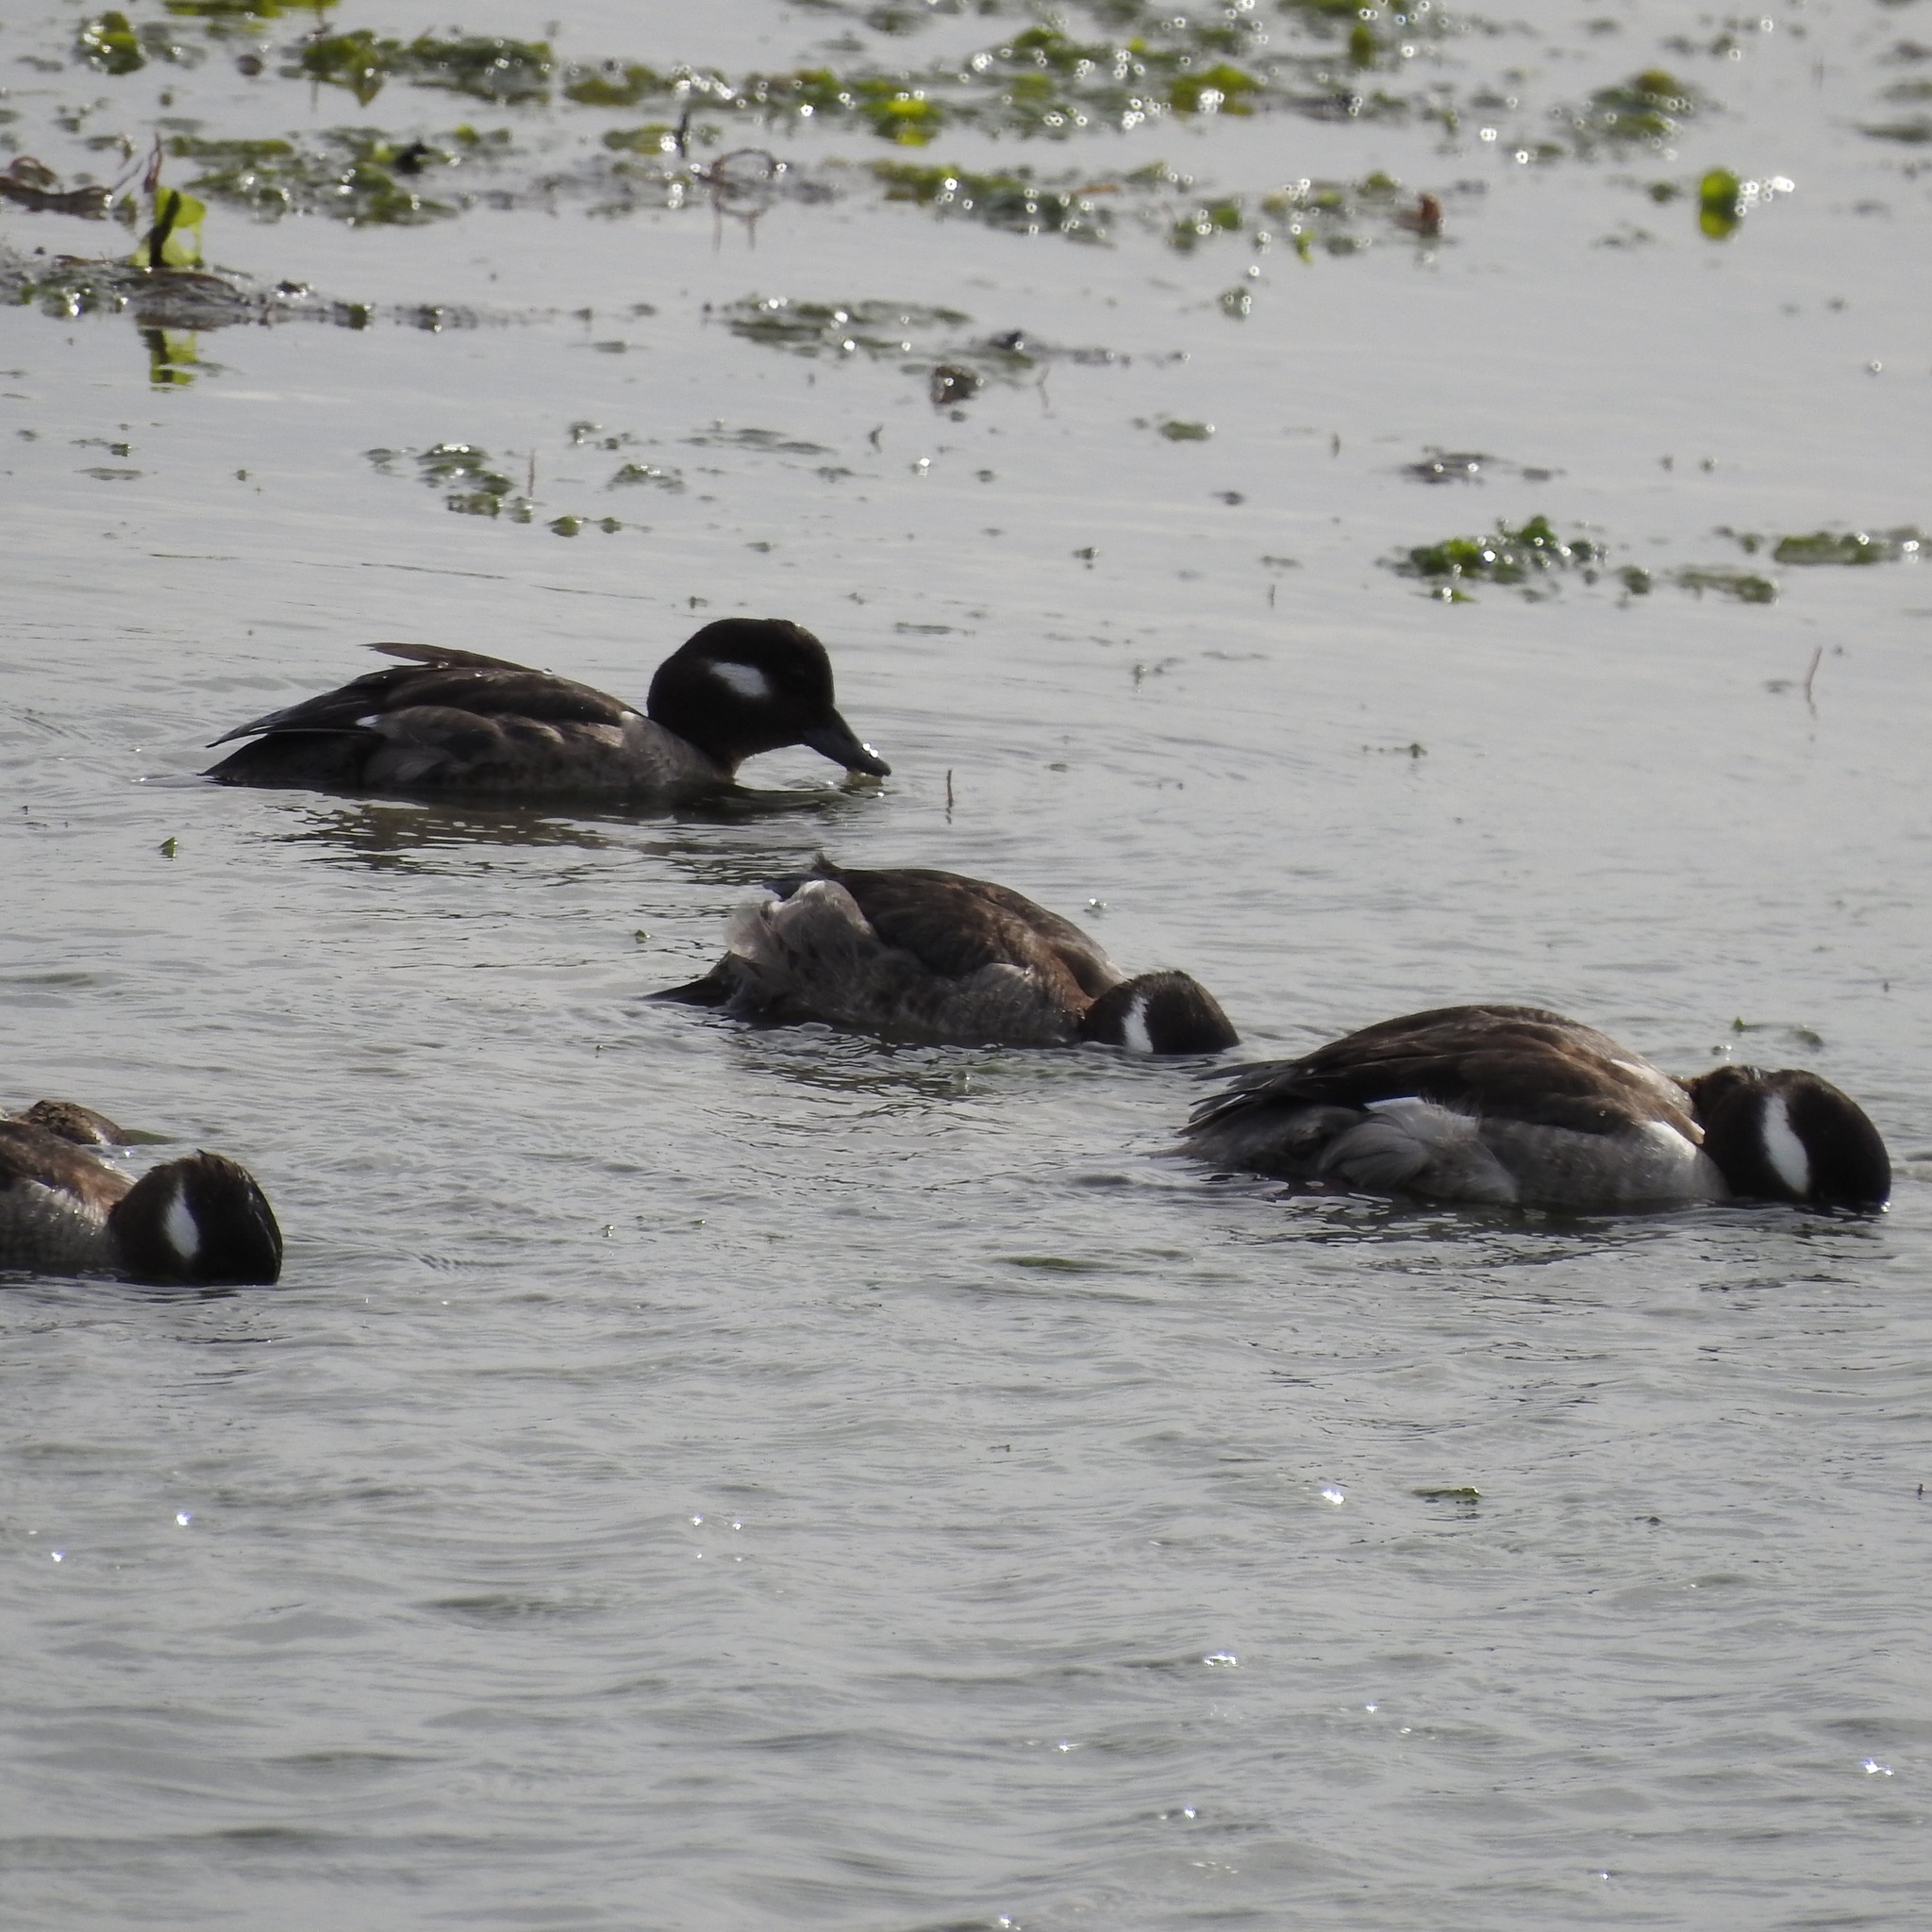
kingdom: Animalia
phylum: Chordata
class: Aves
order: Anseriformes
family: Anatidae
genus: Bucephala
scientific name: Bucephala albeola
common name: Bufflehead
